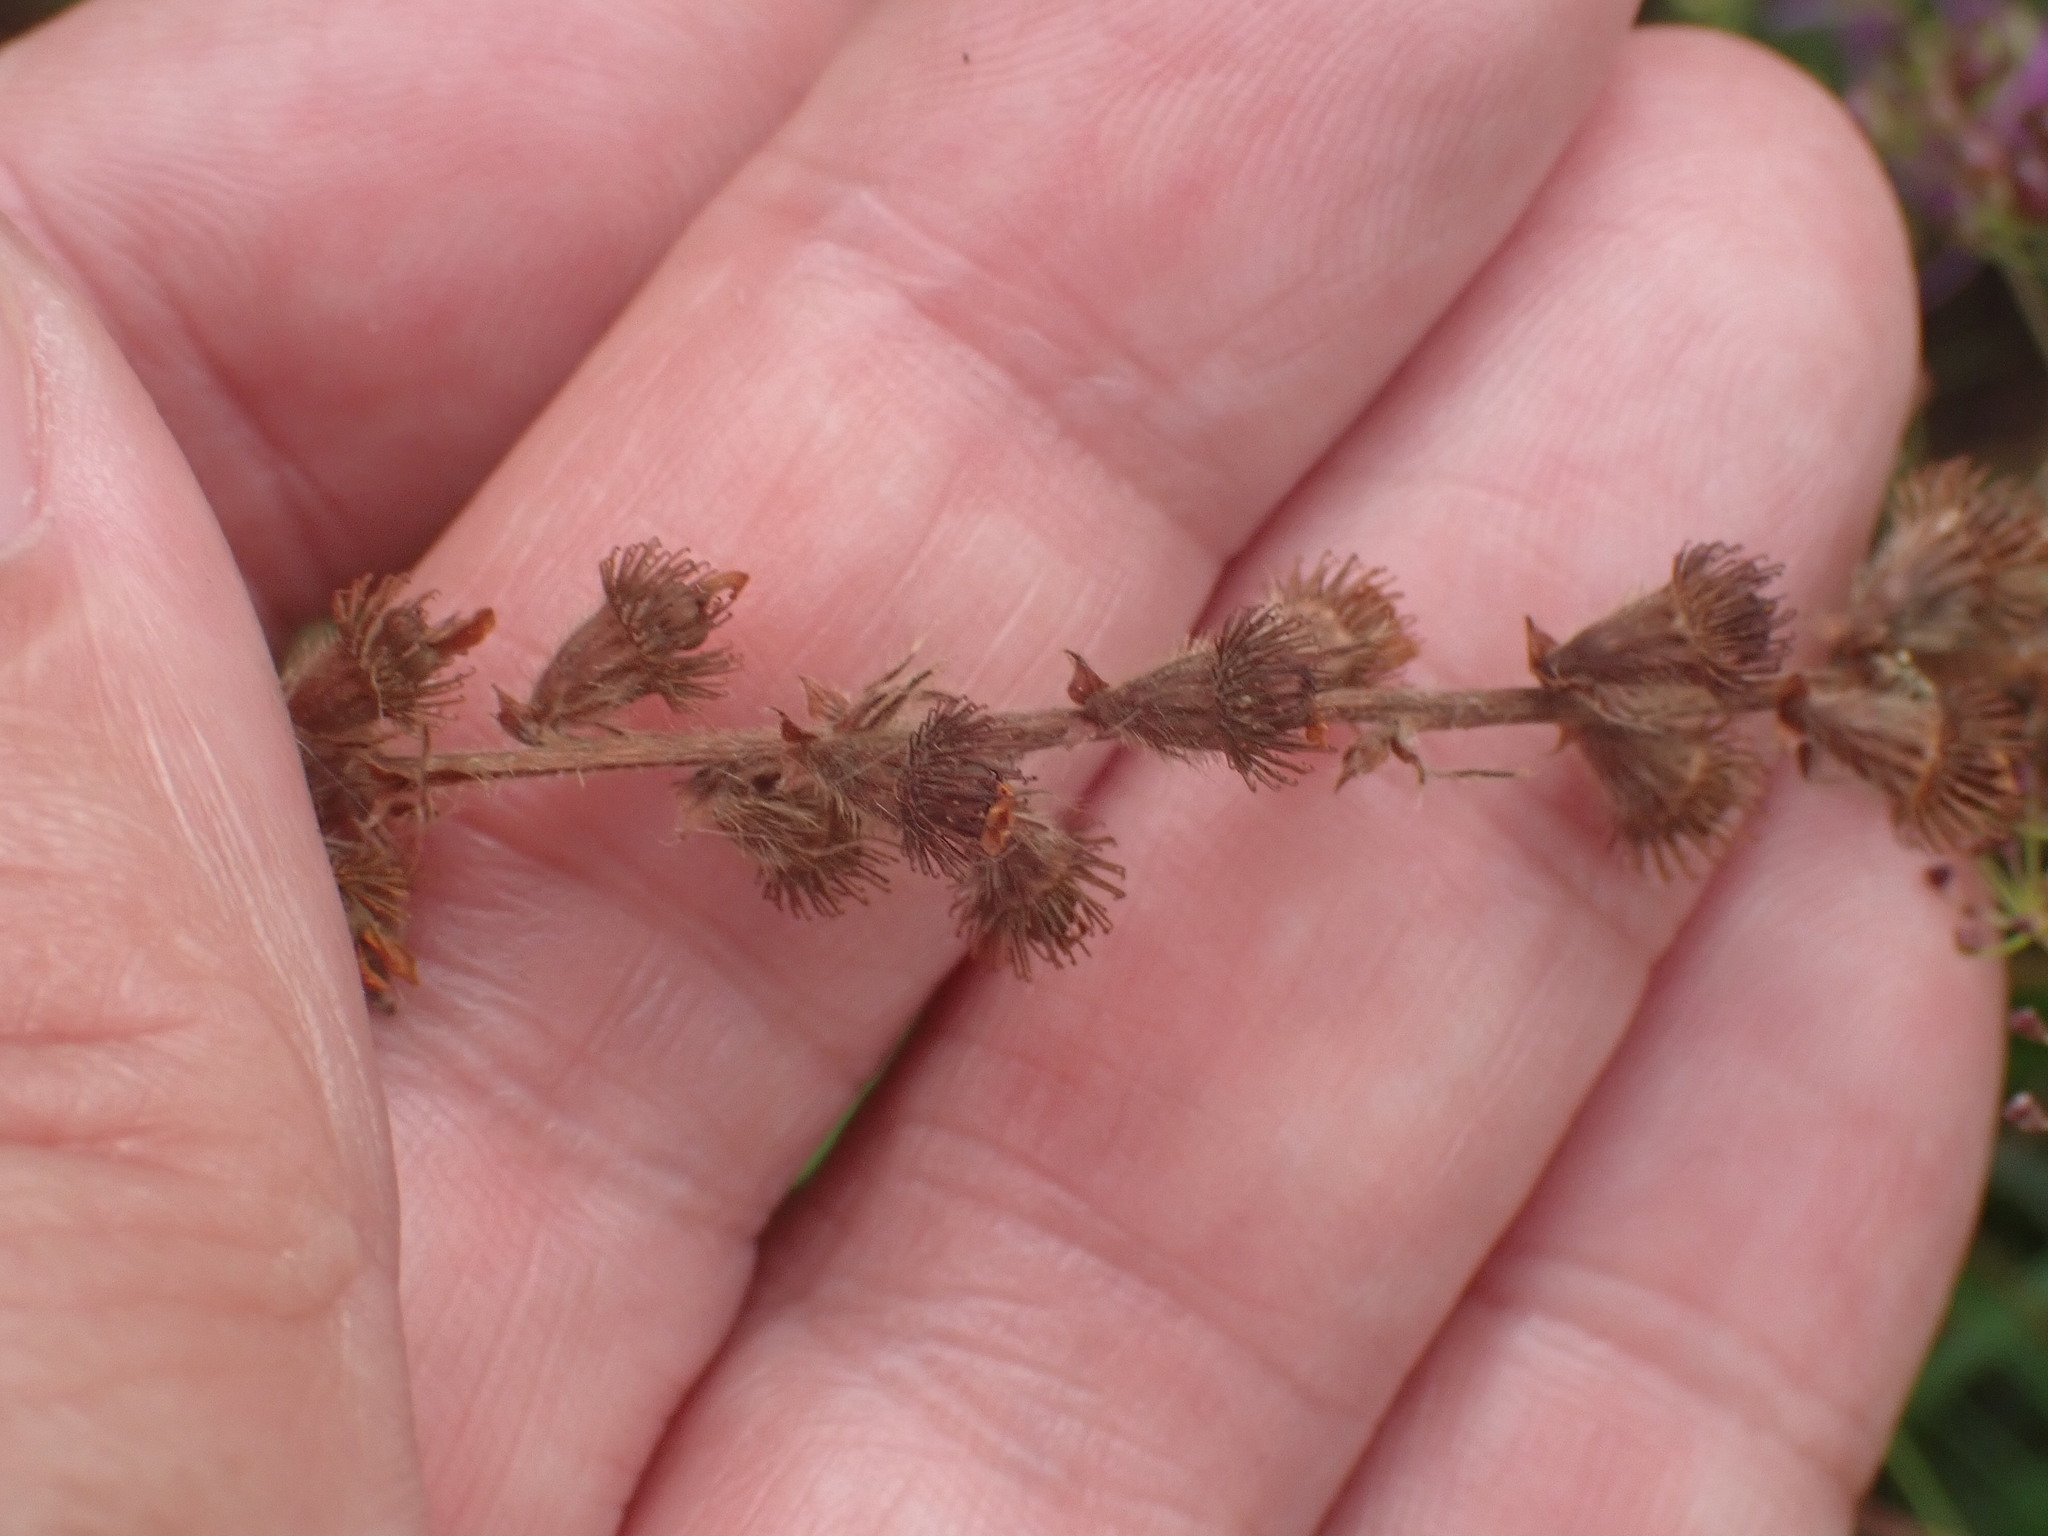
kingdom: Plantae
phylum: Tracheophyta
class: Magnoliopsida
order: Rosales
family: Rosaceae
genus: Agrimonia
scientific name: Agrimonia eupatoria
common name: Agrimony
